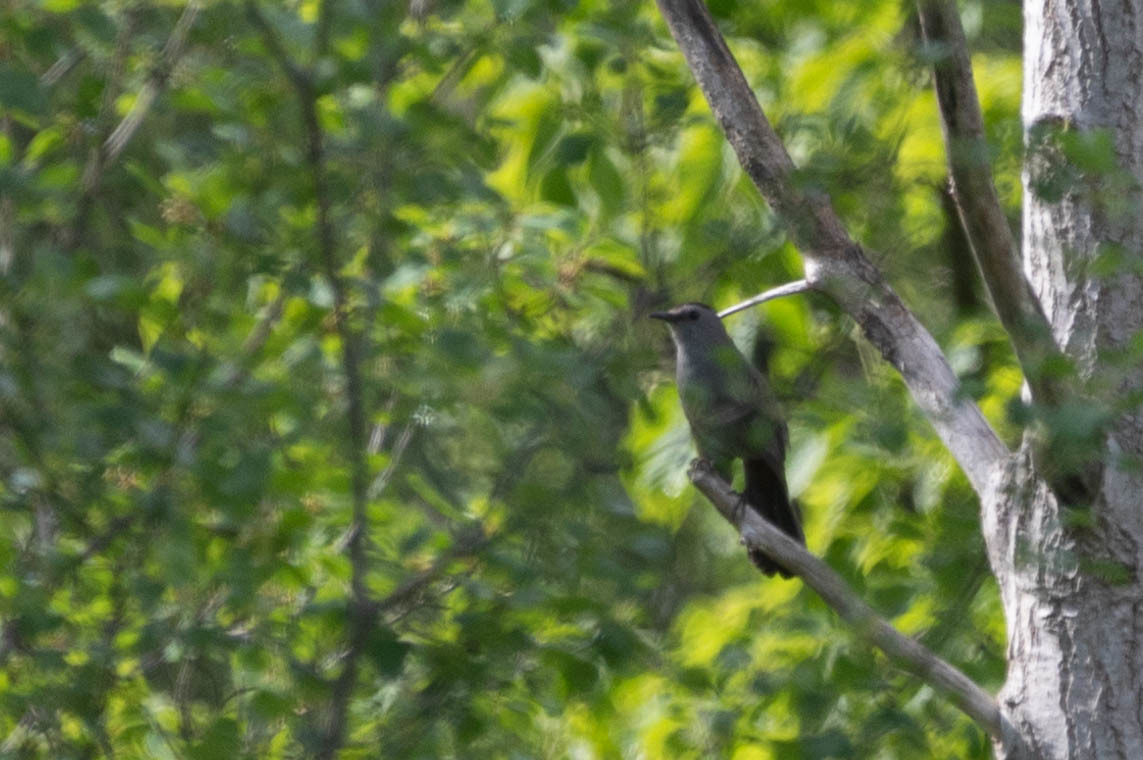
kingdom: Animalia
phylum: Chordata
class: Aves
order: Passeriformes
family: Mimidae
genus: Dumetella
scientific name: Dumetella carolinensis
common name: Gray catbird
